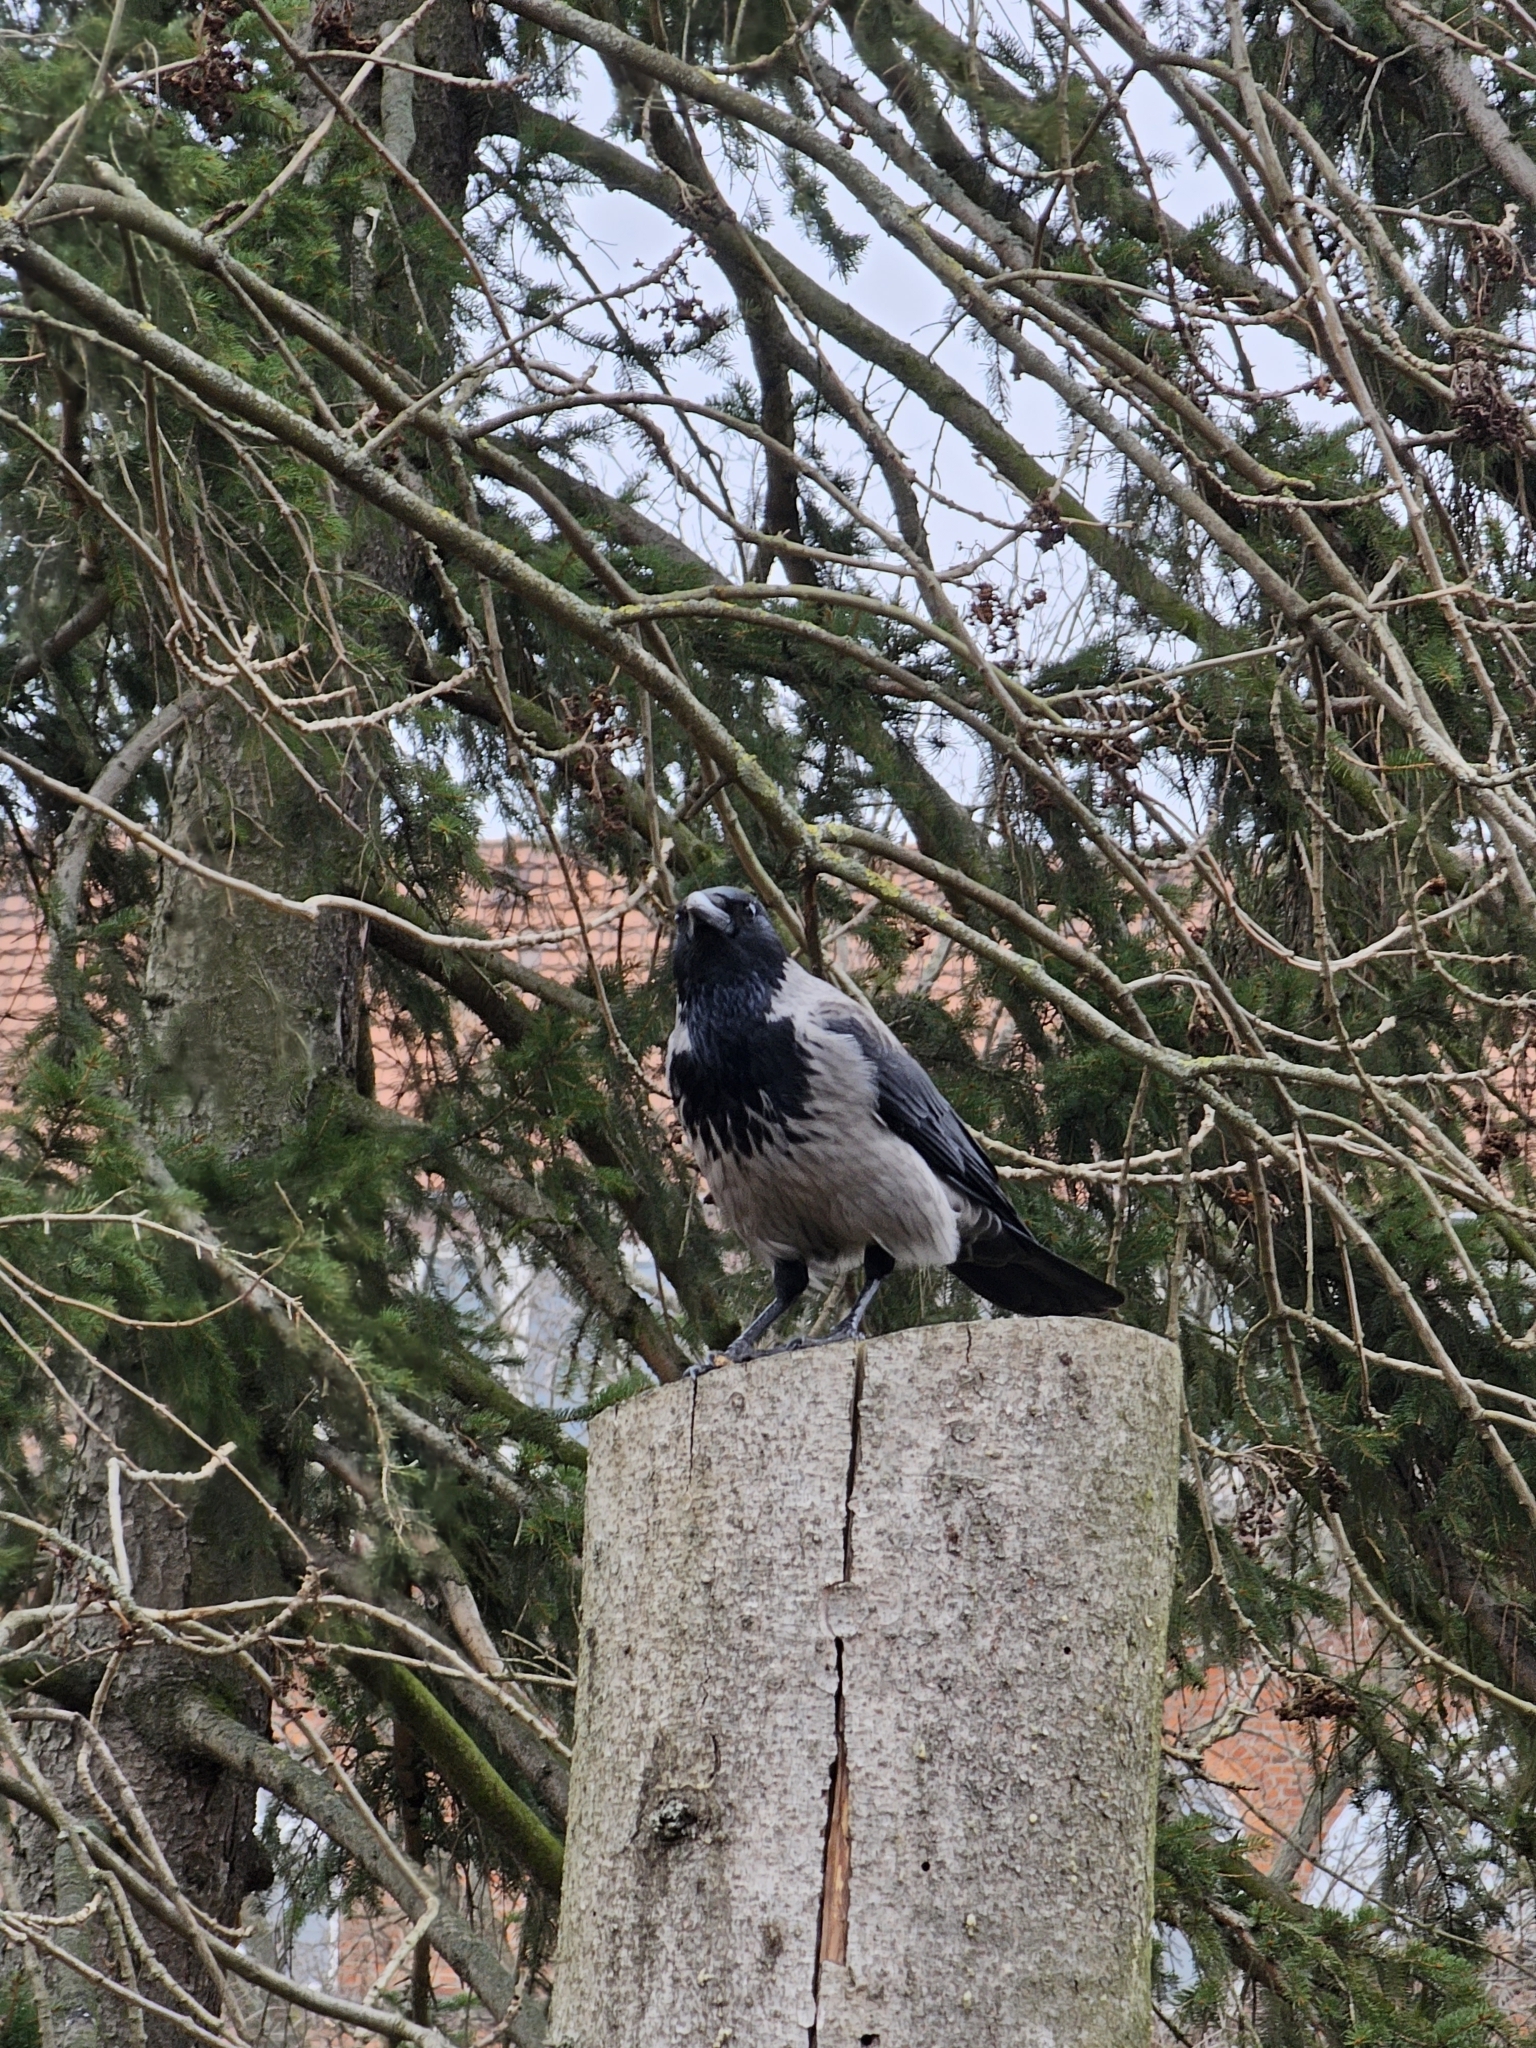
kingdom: Animalia
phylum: Chordata
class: Aves
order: Passeriformes
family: Corvidae
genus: Corvus
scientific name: Corvus
